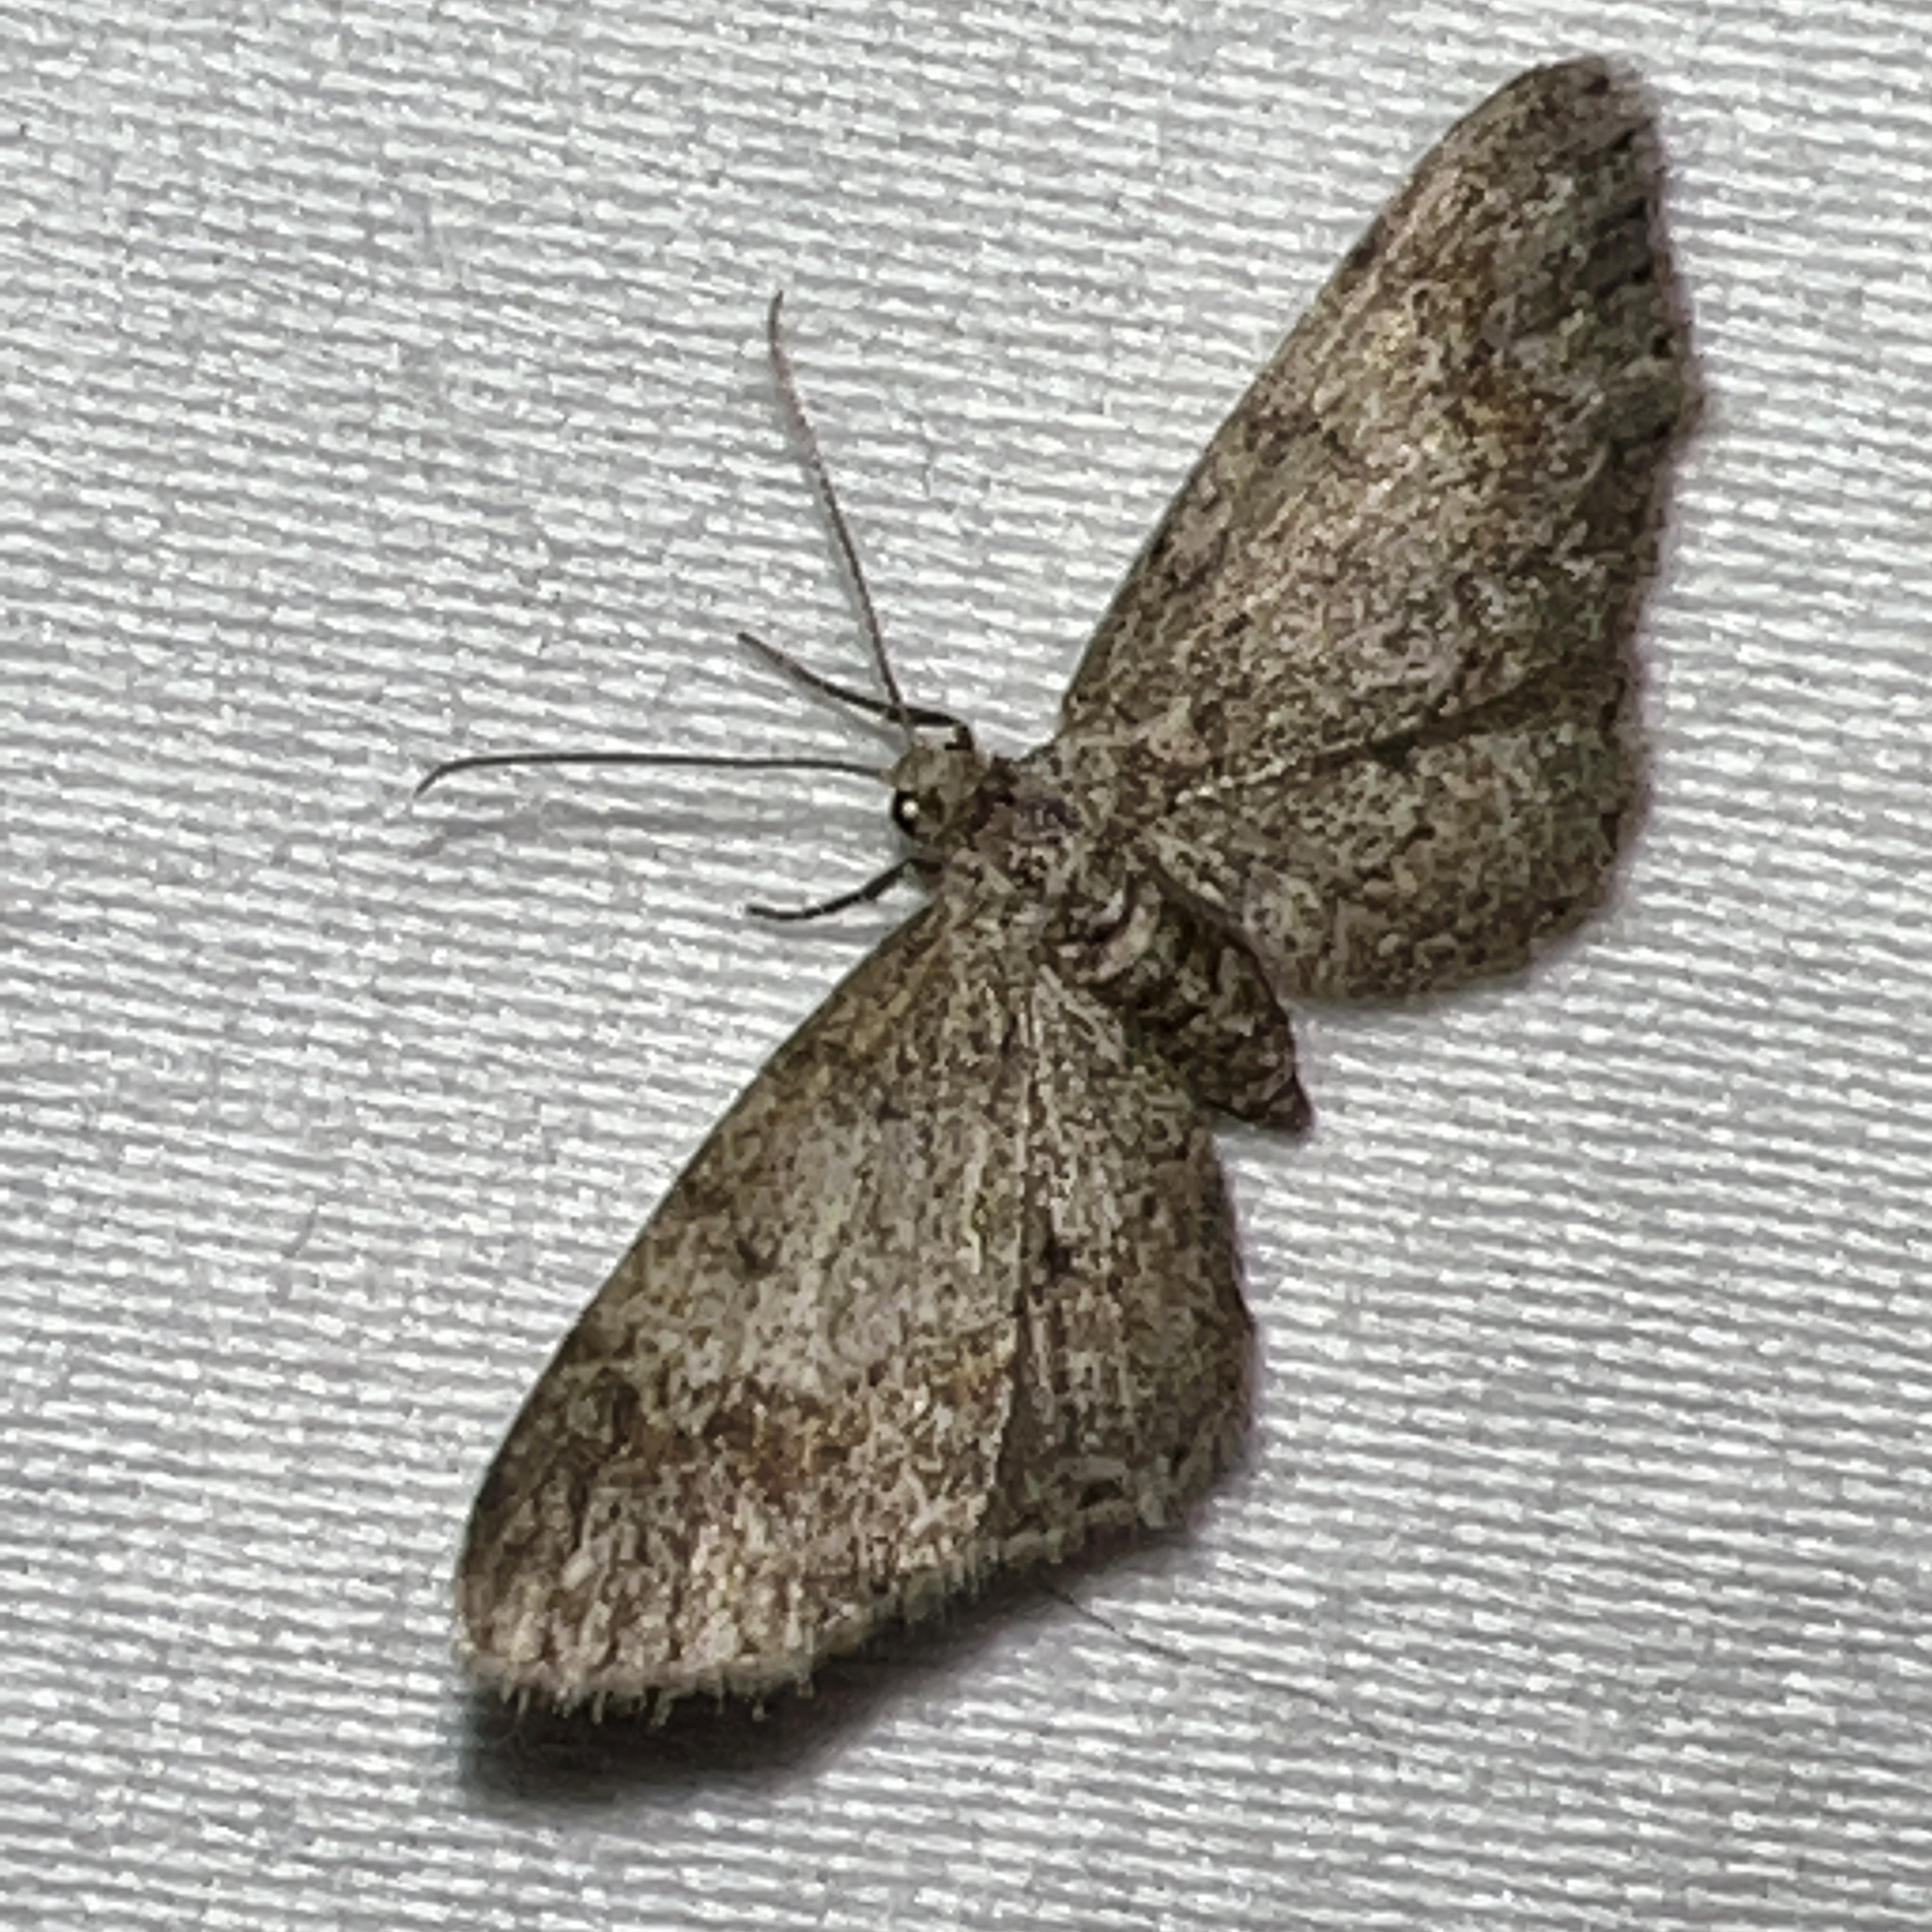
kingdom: Animalia
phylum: Arthropoda
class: Insecta
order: Lepidoptera
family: Geometridae
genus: Glenoides
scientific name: Glenoides texanaria
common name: Texas gray
